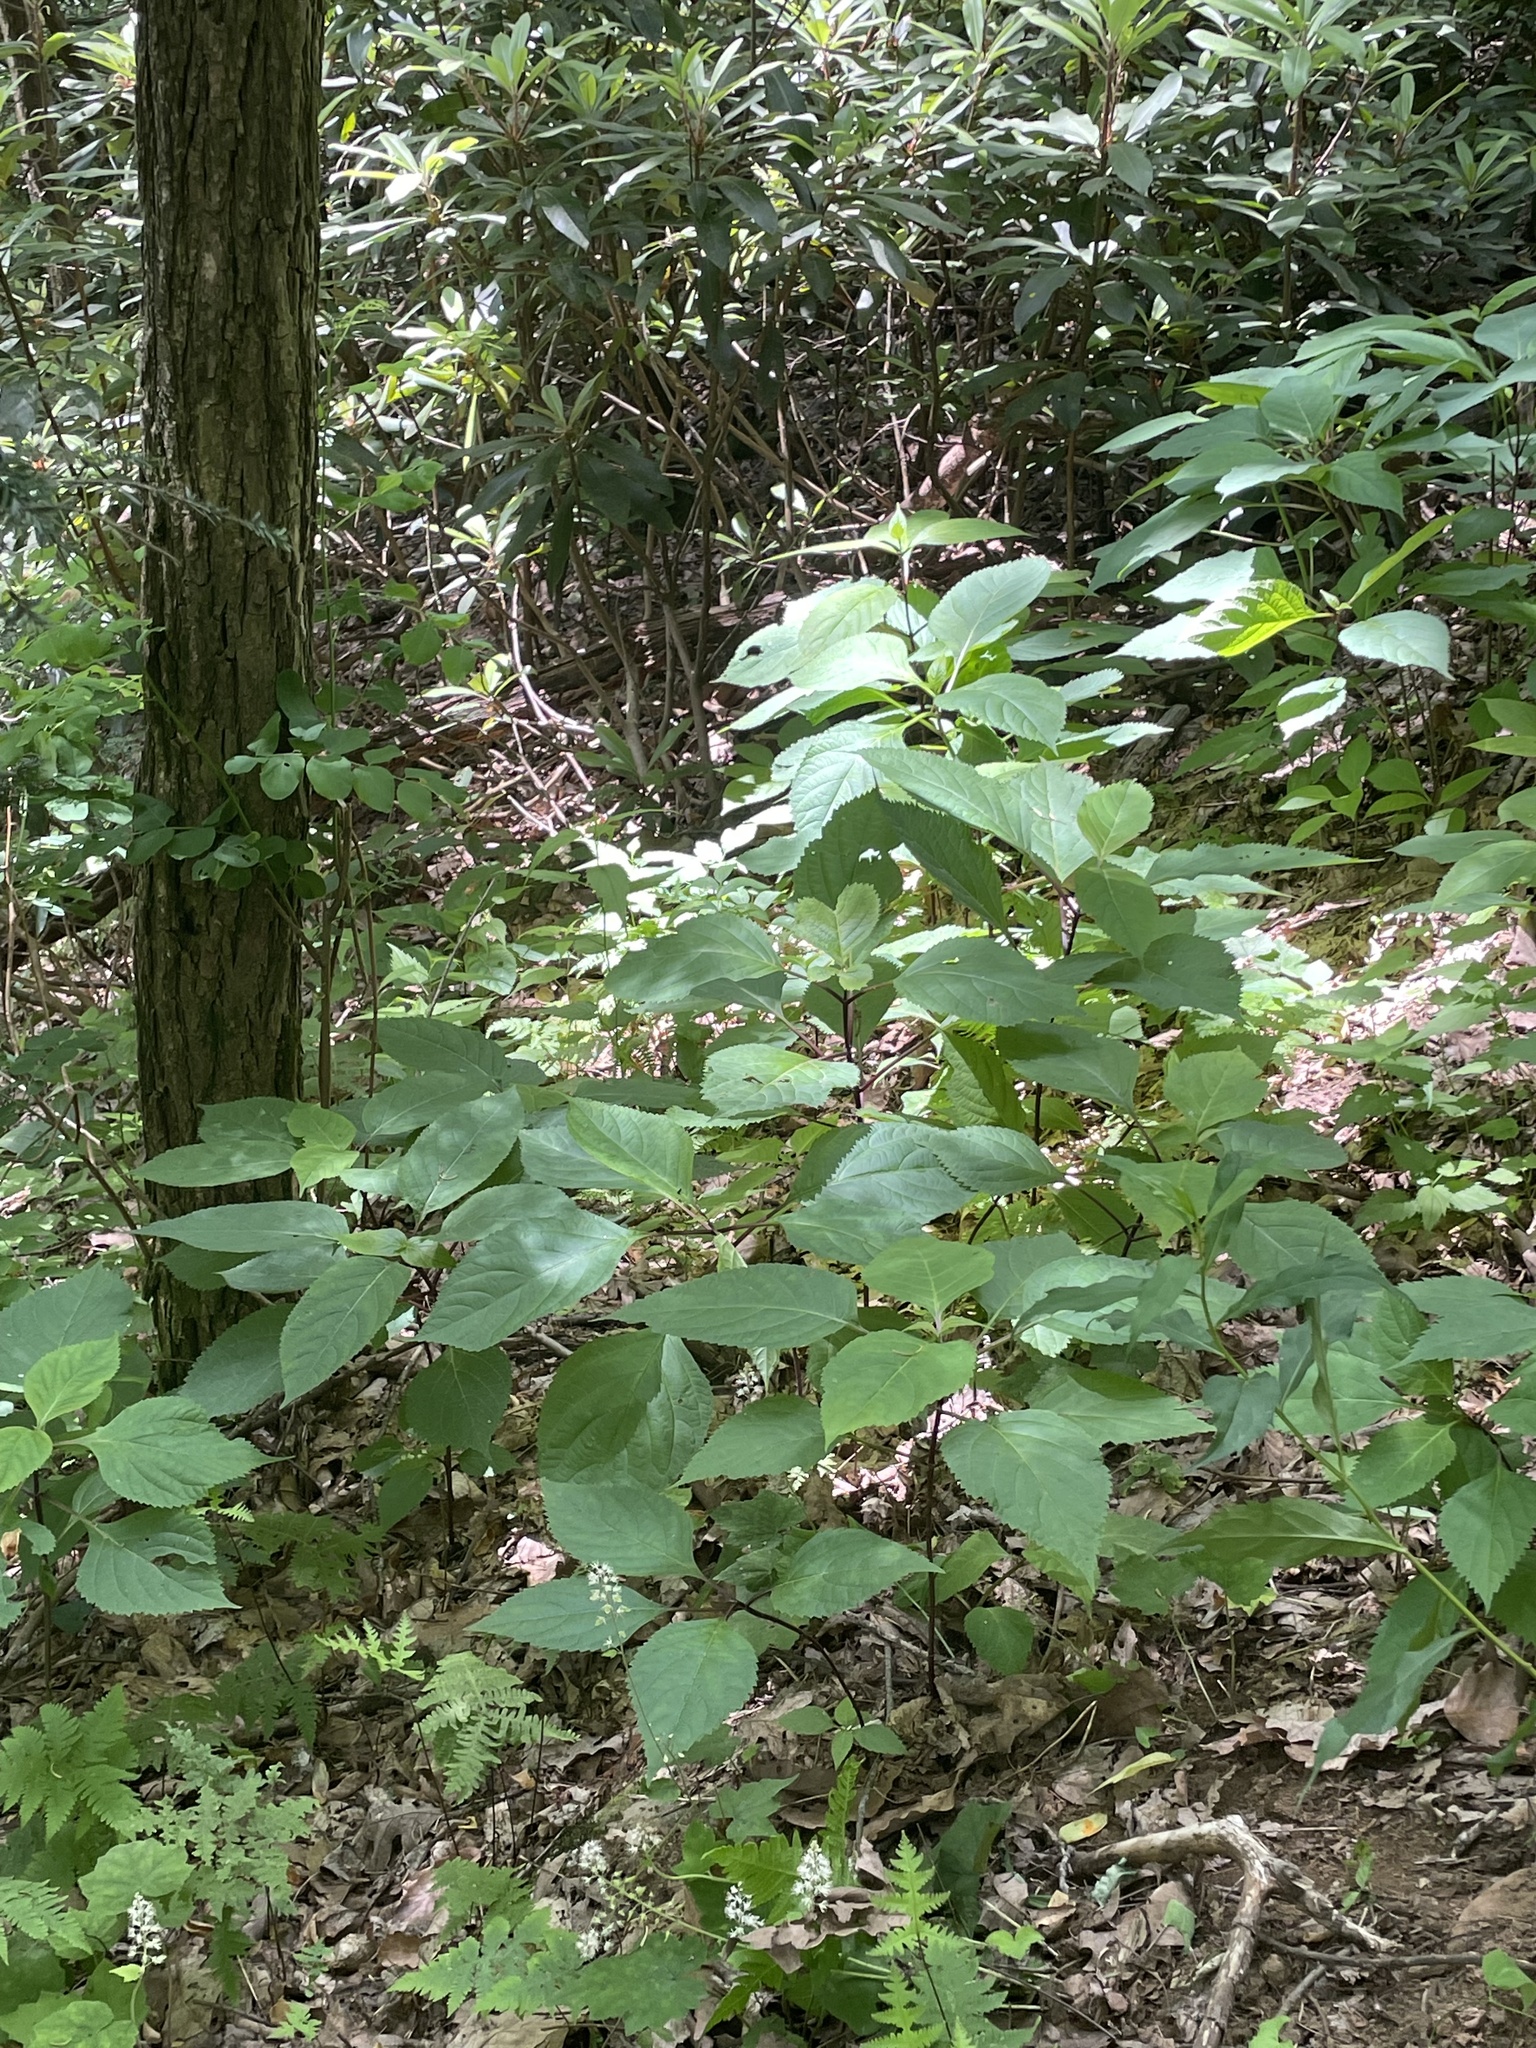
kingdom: Plantae
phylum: Tracheophyta
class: Magnoliopsida
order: Lamiales
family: Lamiaceae
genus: Collinsonia
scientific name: Collinsonia canadensis
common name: Northern horsebalm
